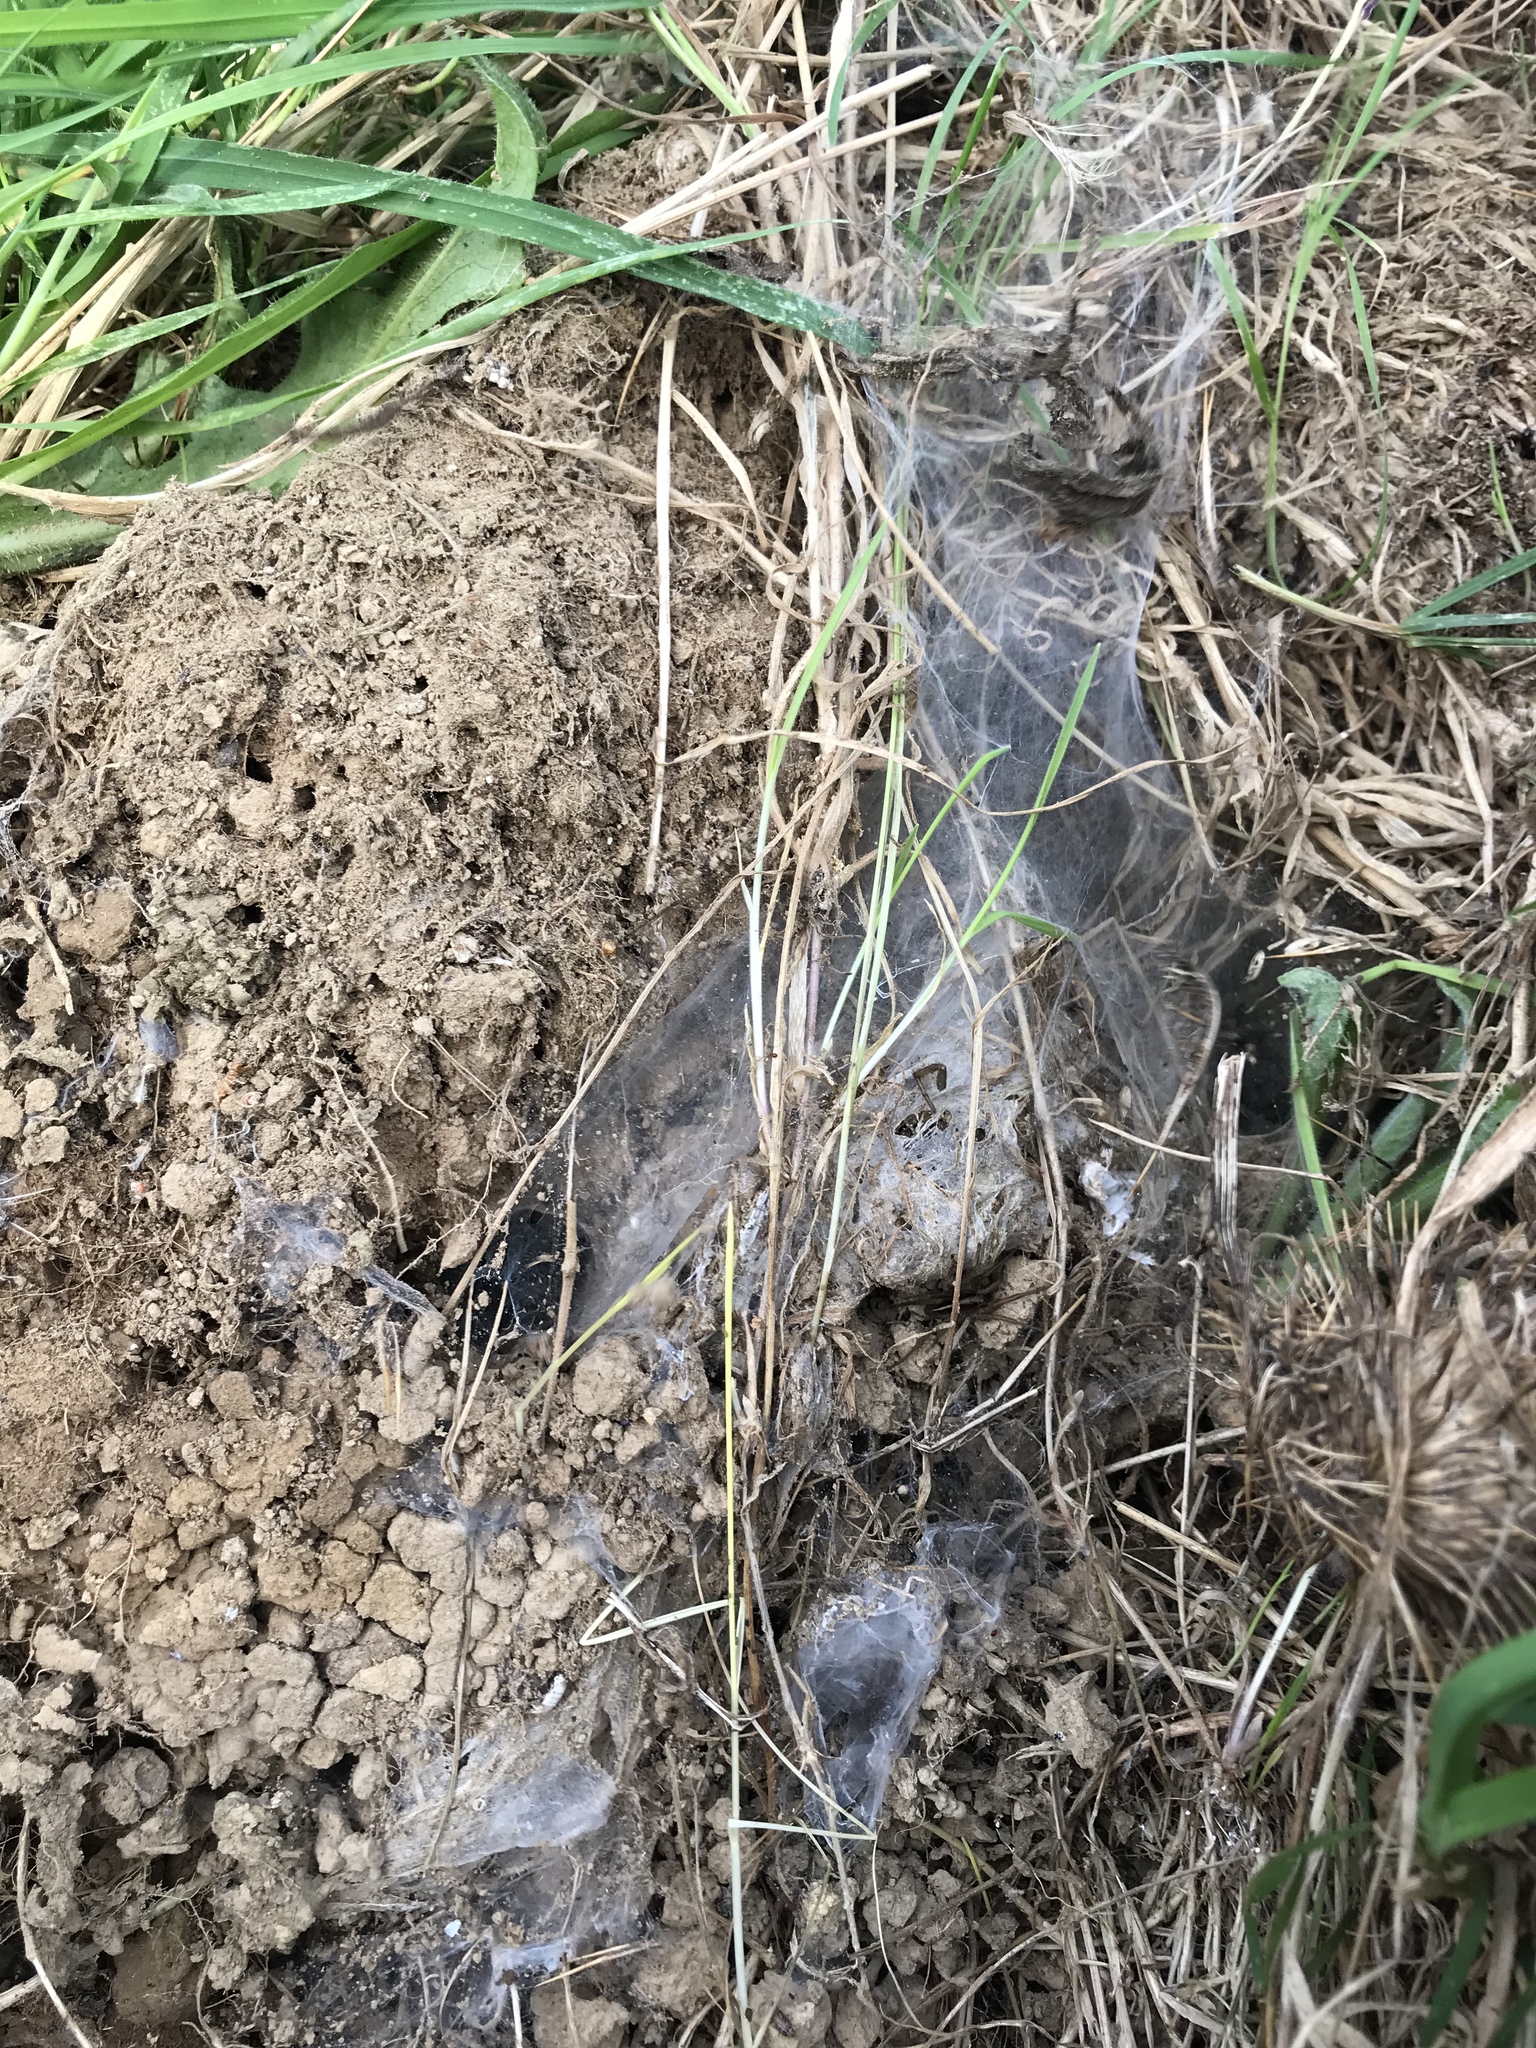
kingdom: Animalia
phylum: Arthropoda
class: Arachnida
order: Araneae
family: Lycosidae
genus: Anoteropsis
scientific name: Anoteropsis hilaris
